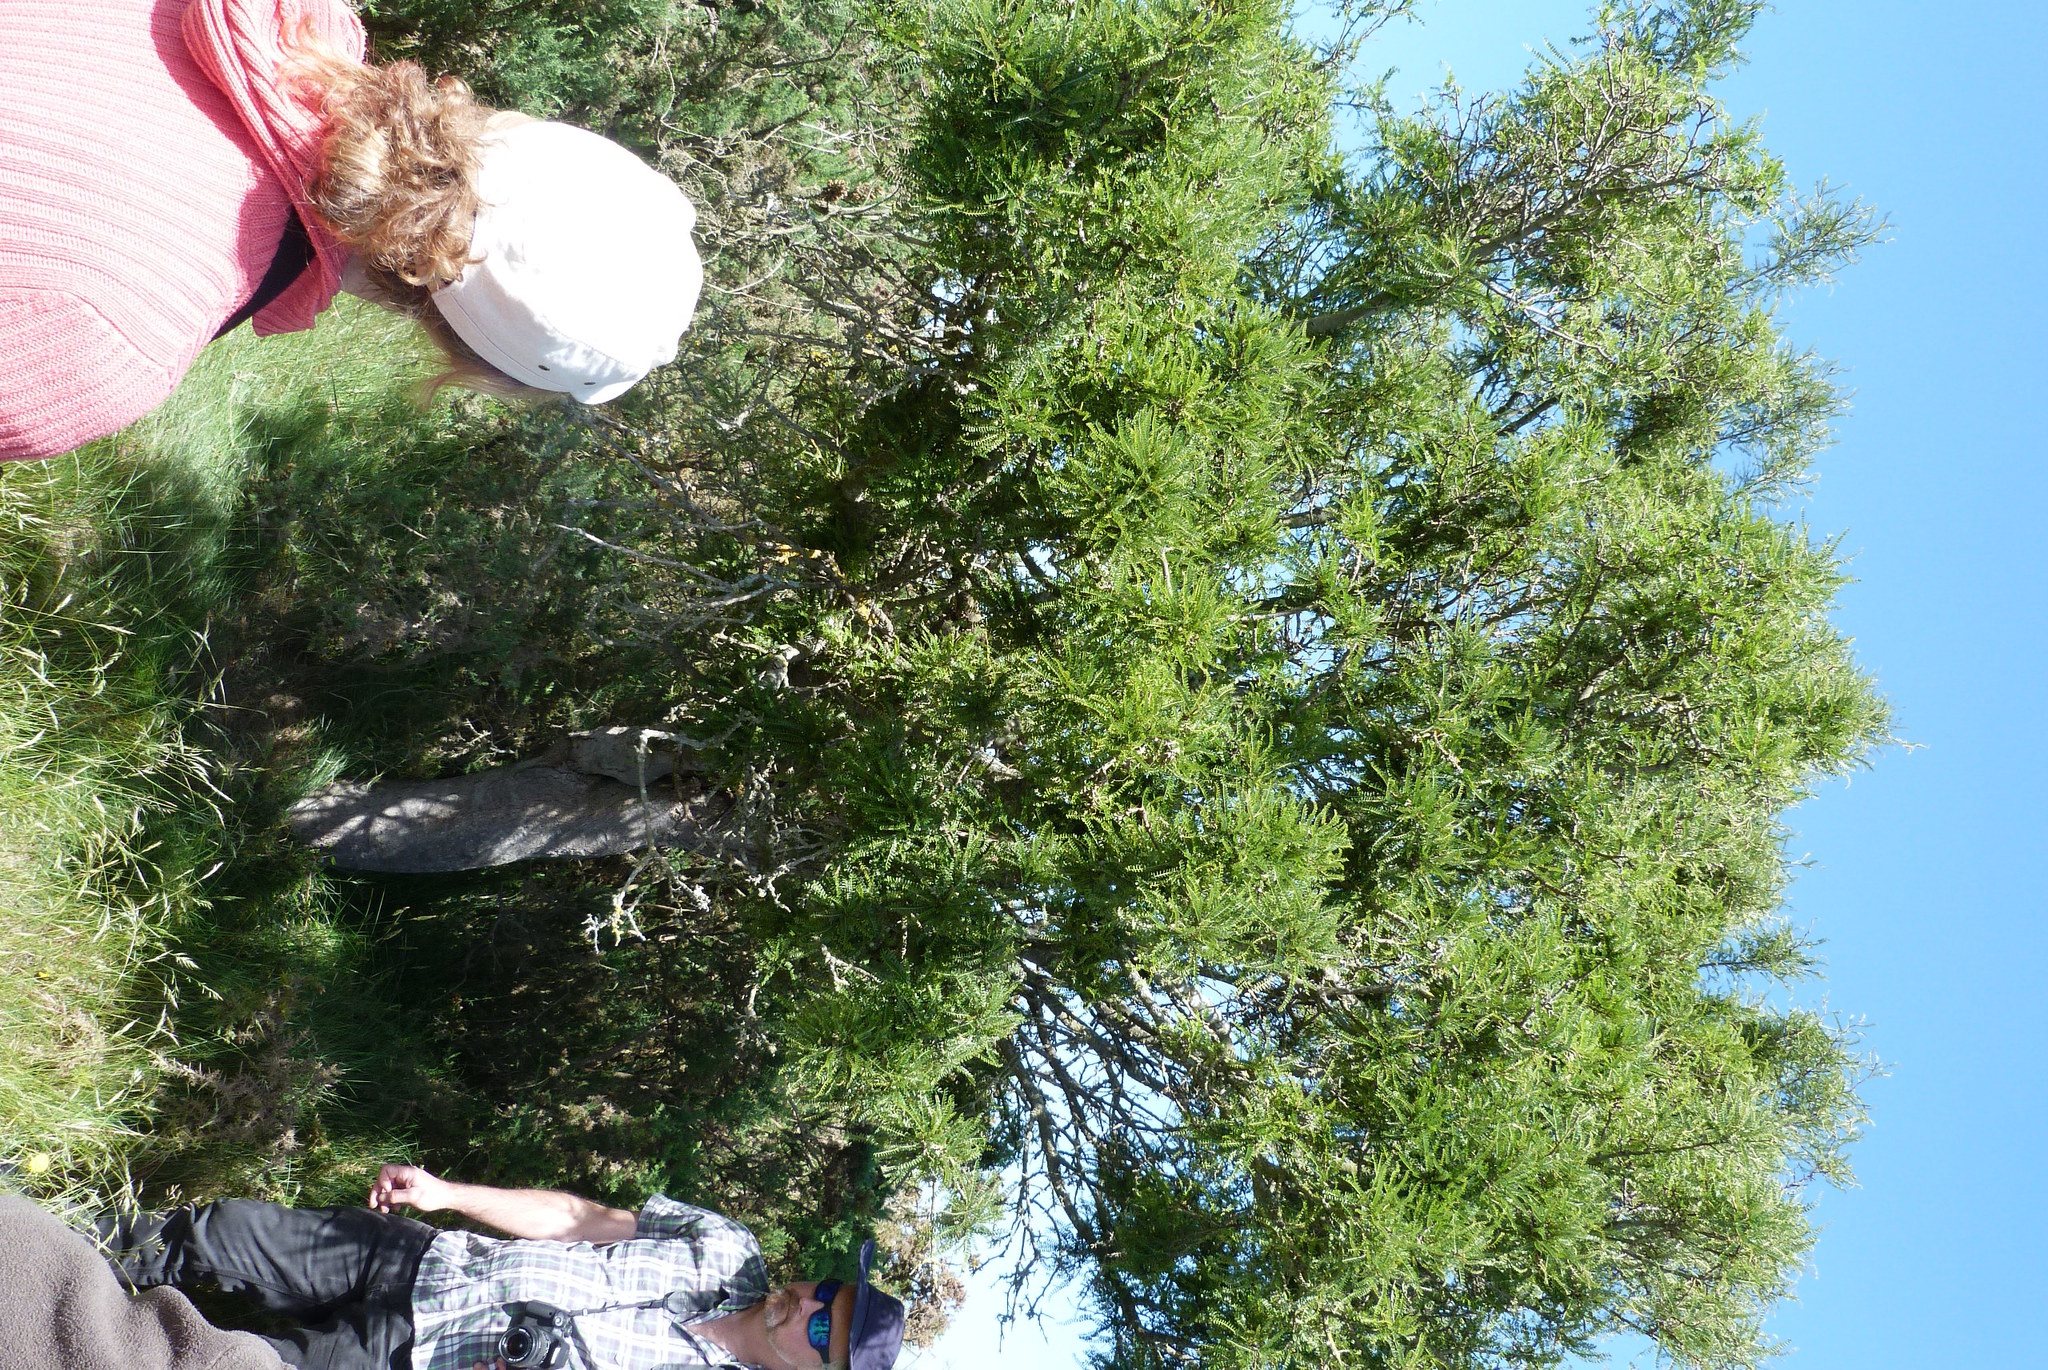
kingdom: Plantae
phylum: Tracheophyta
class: Magnoliopsida
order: Fabales
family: Fabaceae
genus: Sophora
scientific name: Sophora microphylla
